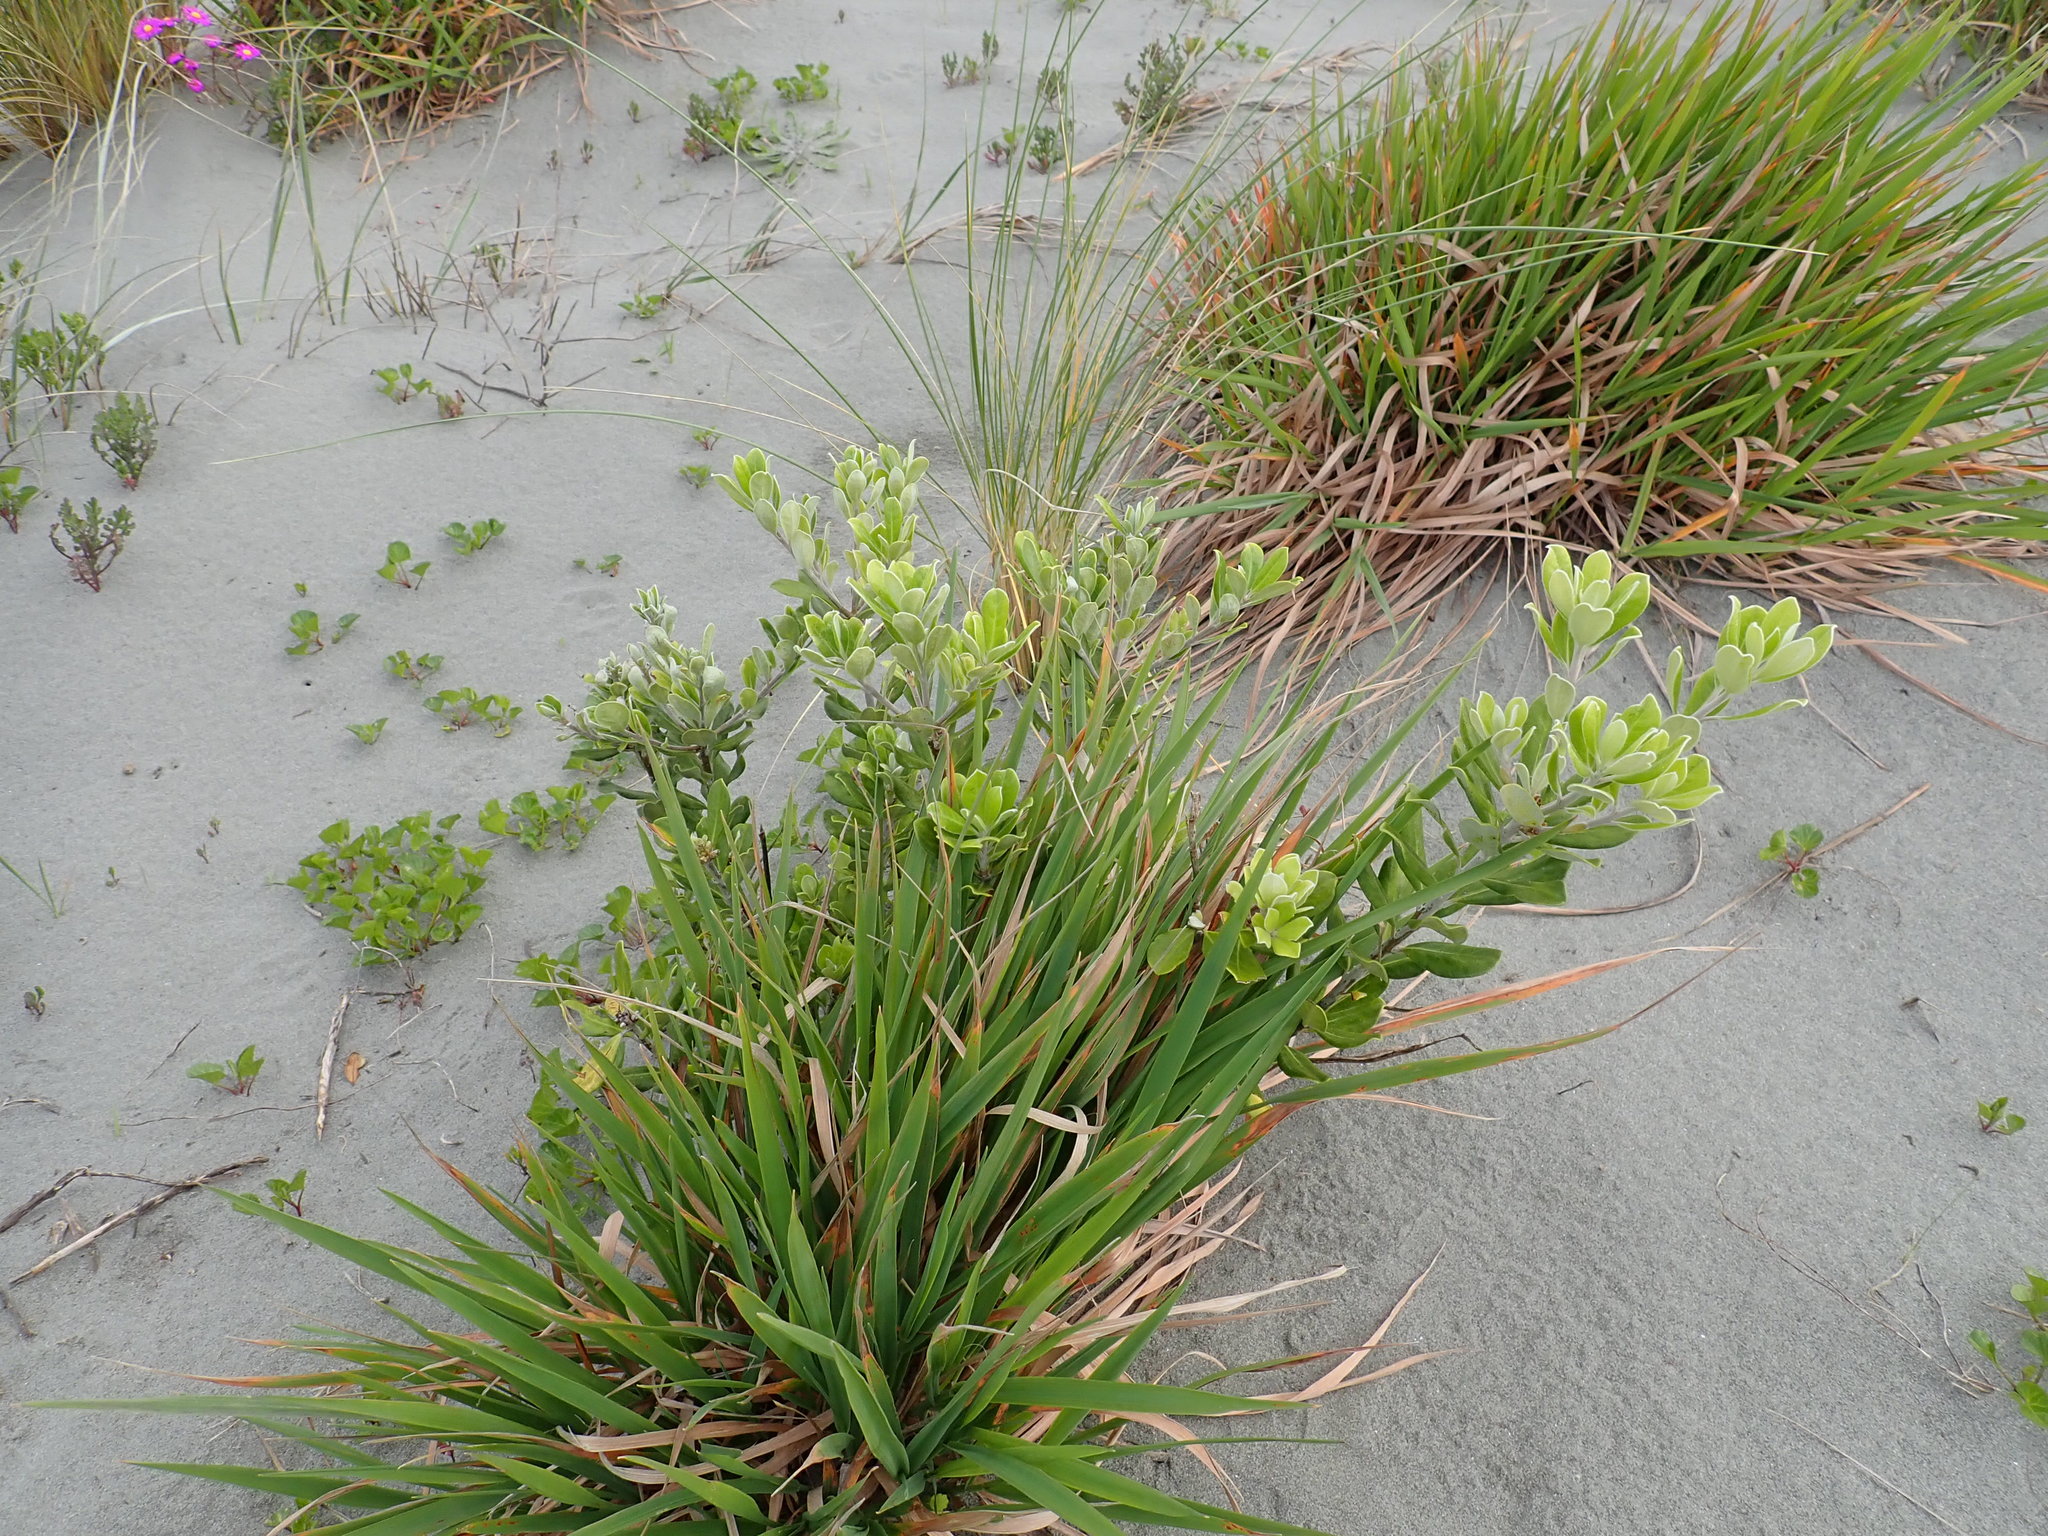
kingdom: Plantae
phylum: Tracheophyta
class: Magnoliopsida
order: Apiales
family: Pittosporaceae
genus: Pittosporum
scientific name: Pittosporum crassifolium
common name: Karo
